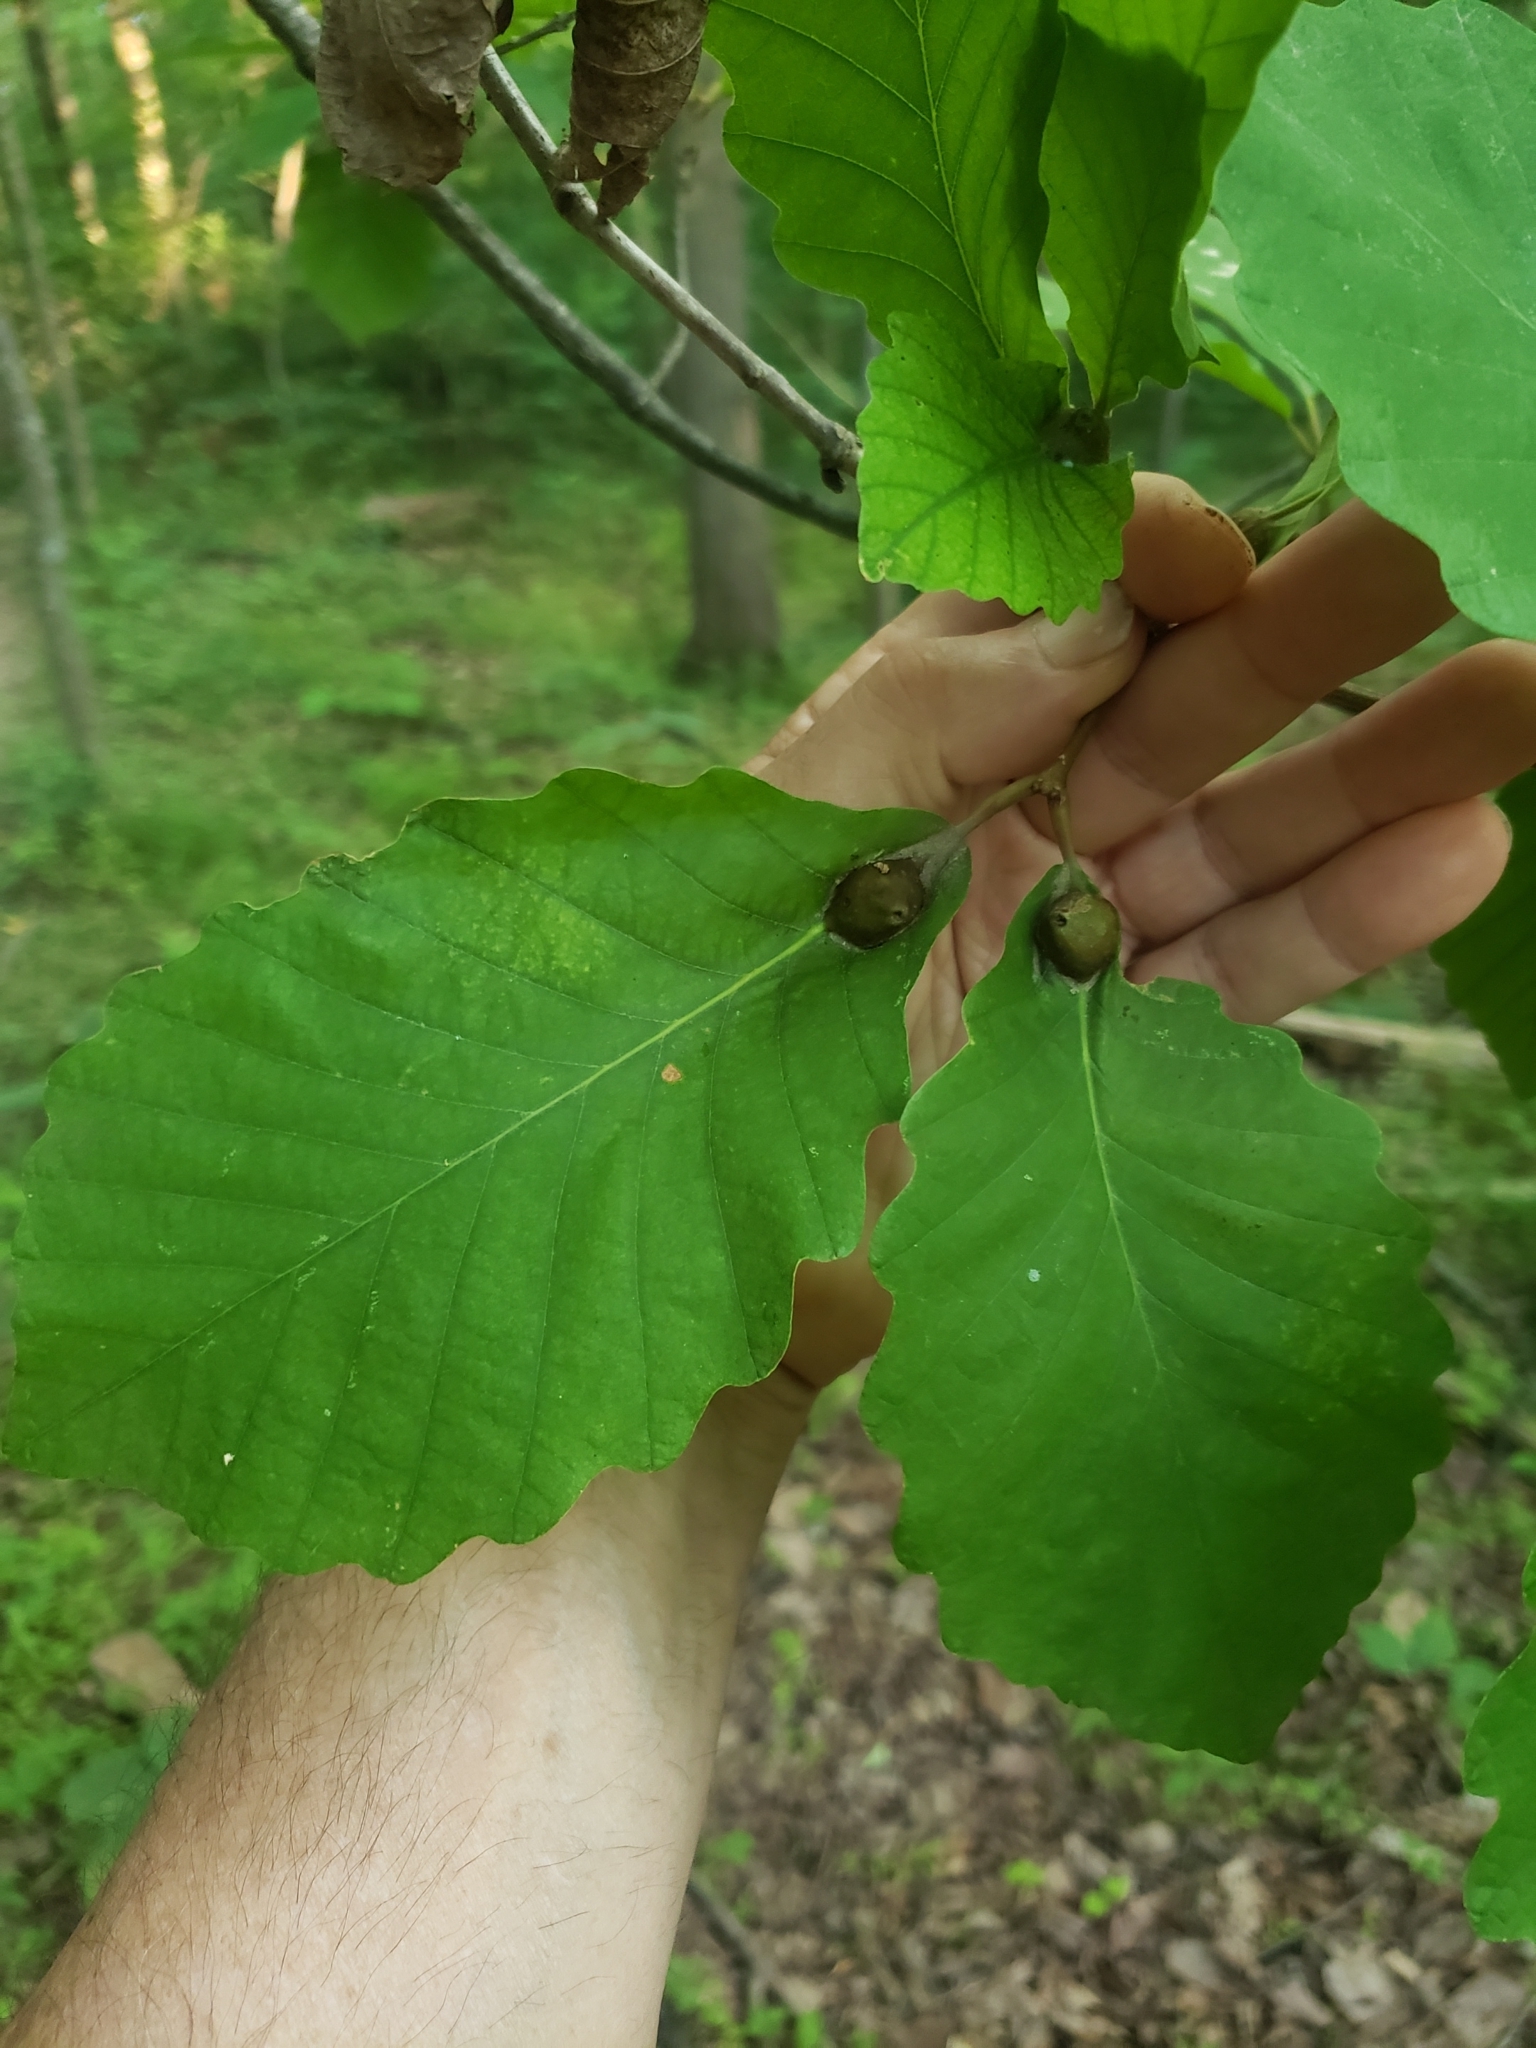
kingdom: Animalia
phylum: Arthropoda
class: Insecta
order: Hymenoptera
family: Cynipidae
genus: Andricus
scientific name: Andricus
